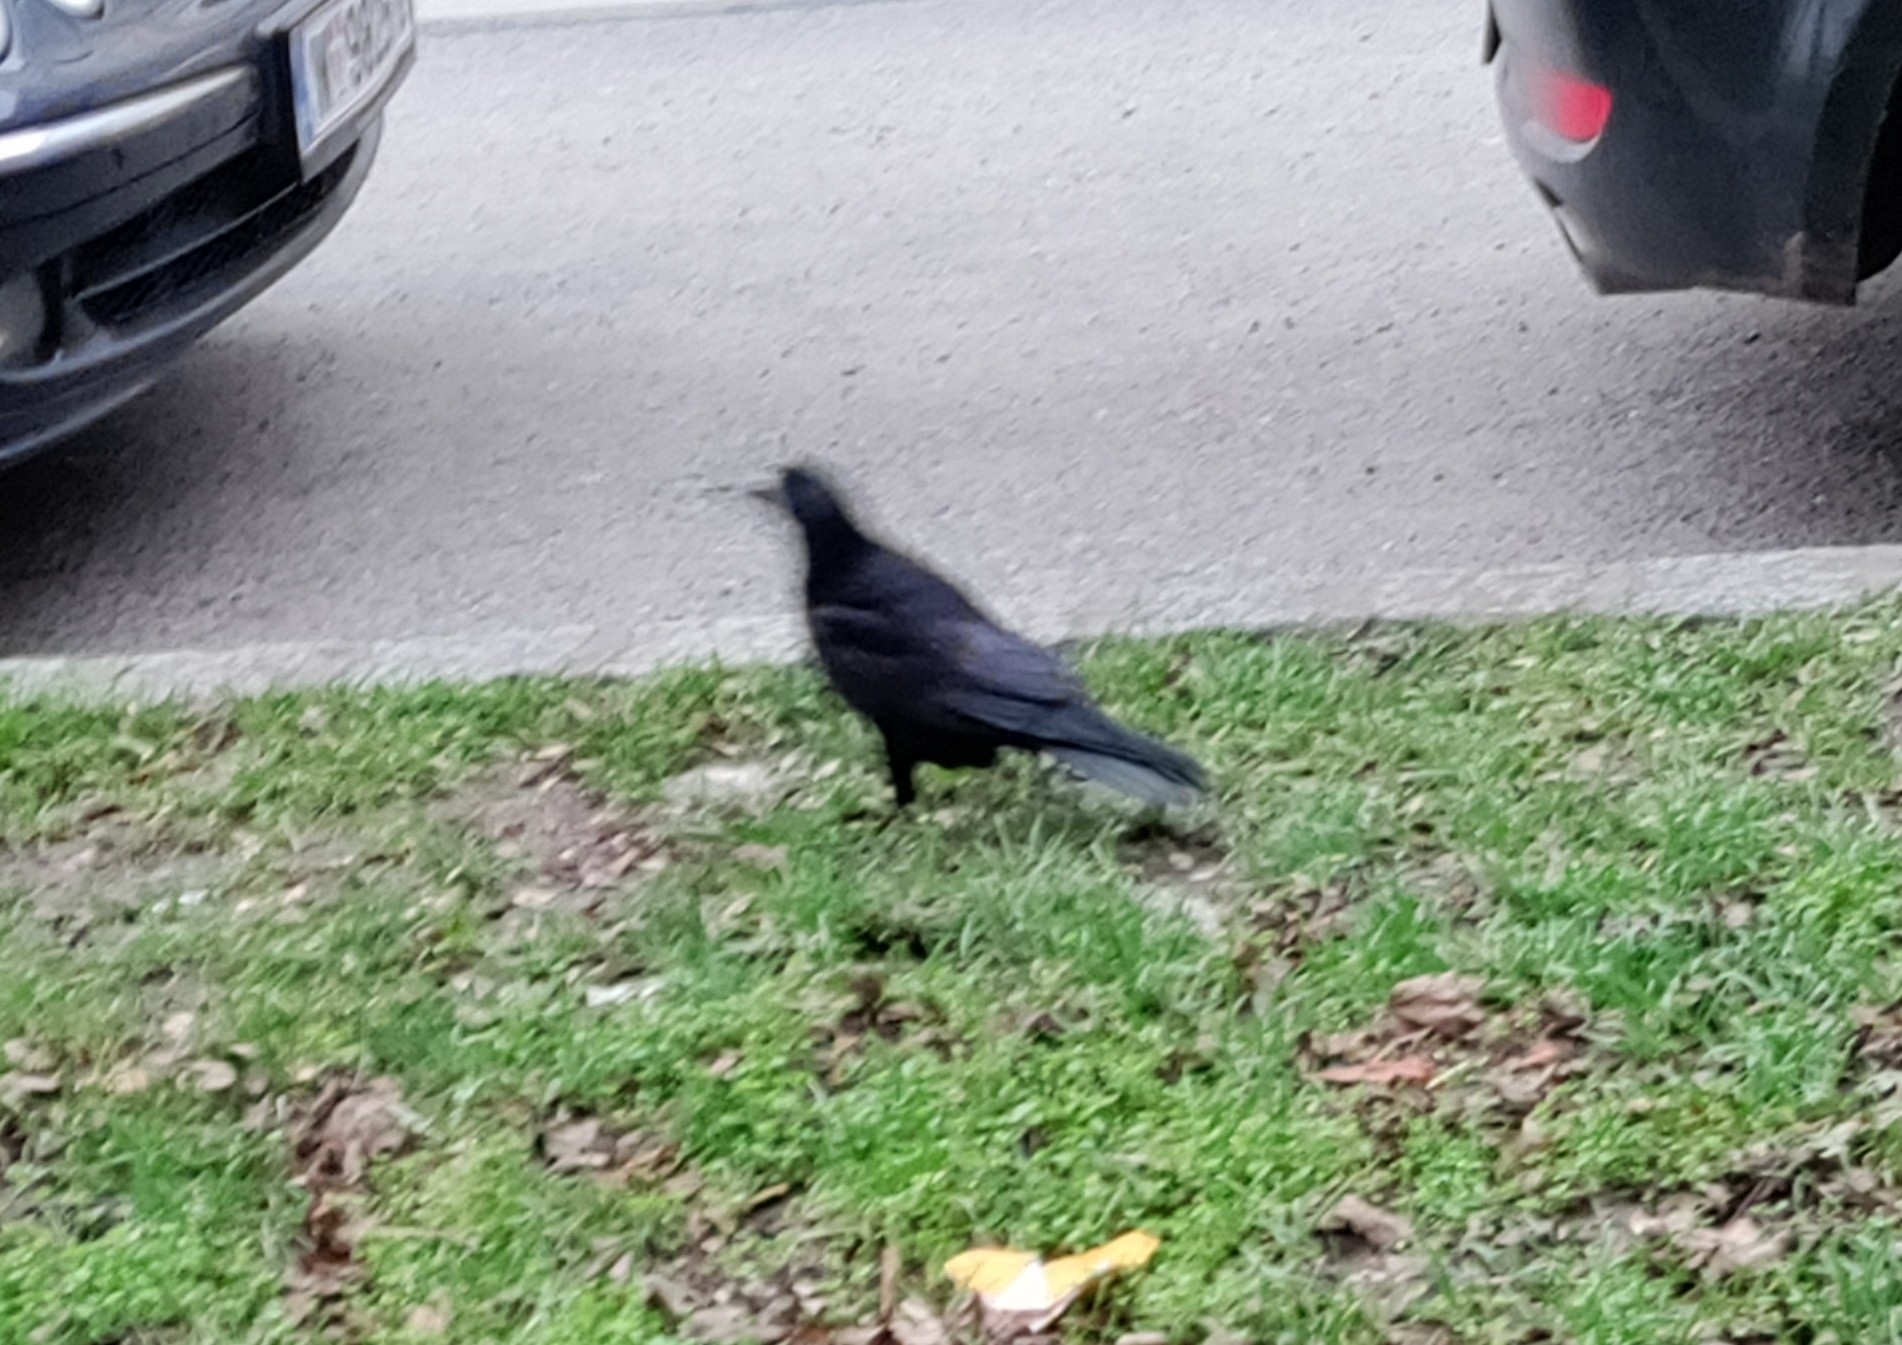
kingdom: Animalia
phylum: Chordata
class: Aves
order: Passeriformes
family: Corvidae
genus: Corvus
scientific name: Corvus frugilegus
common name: Rook
